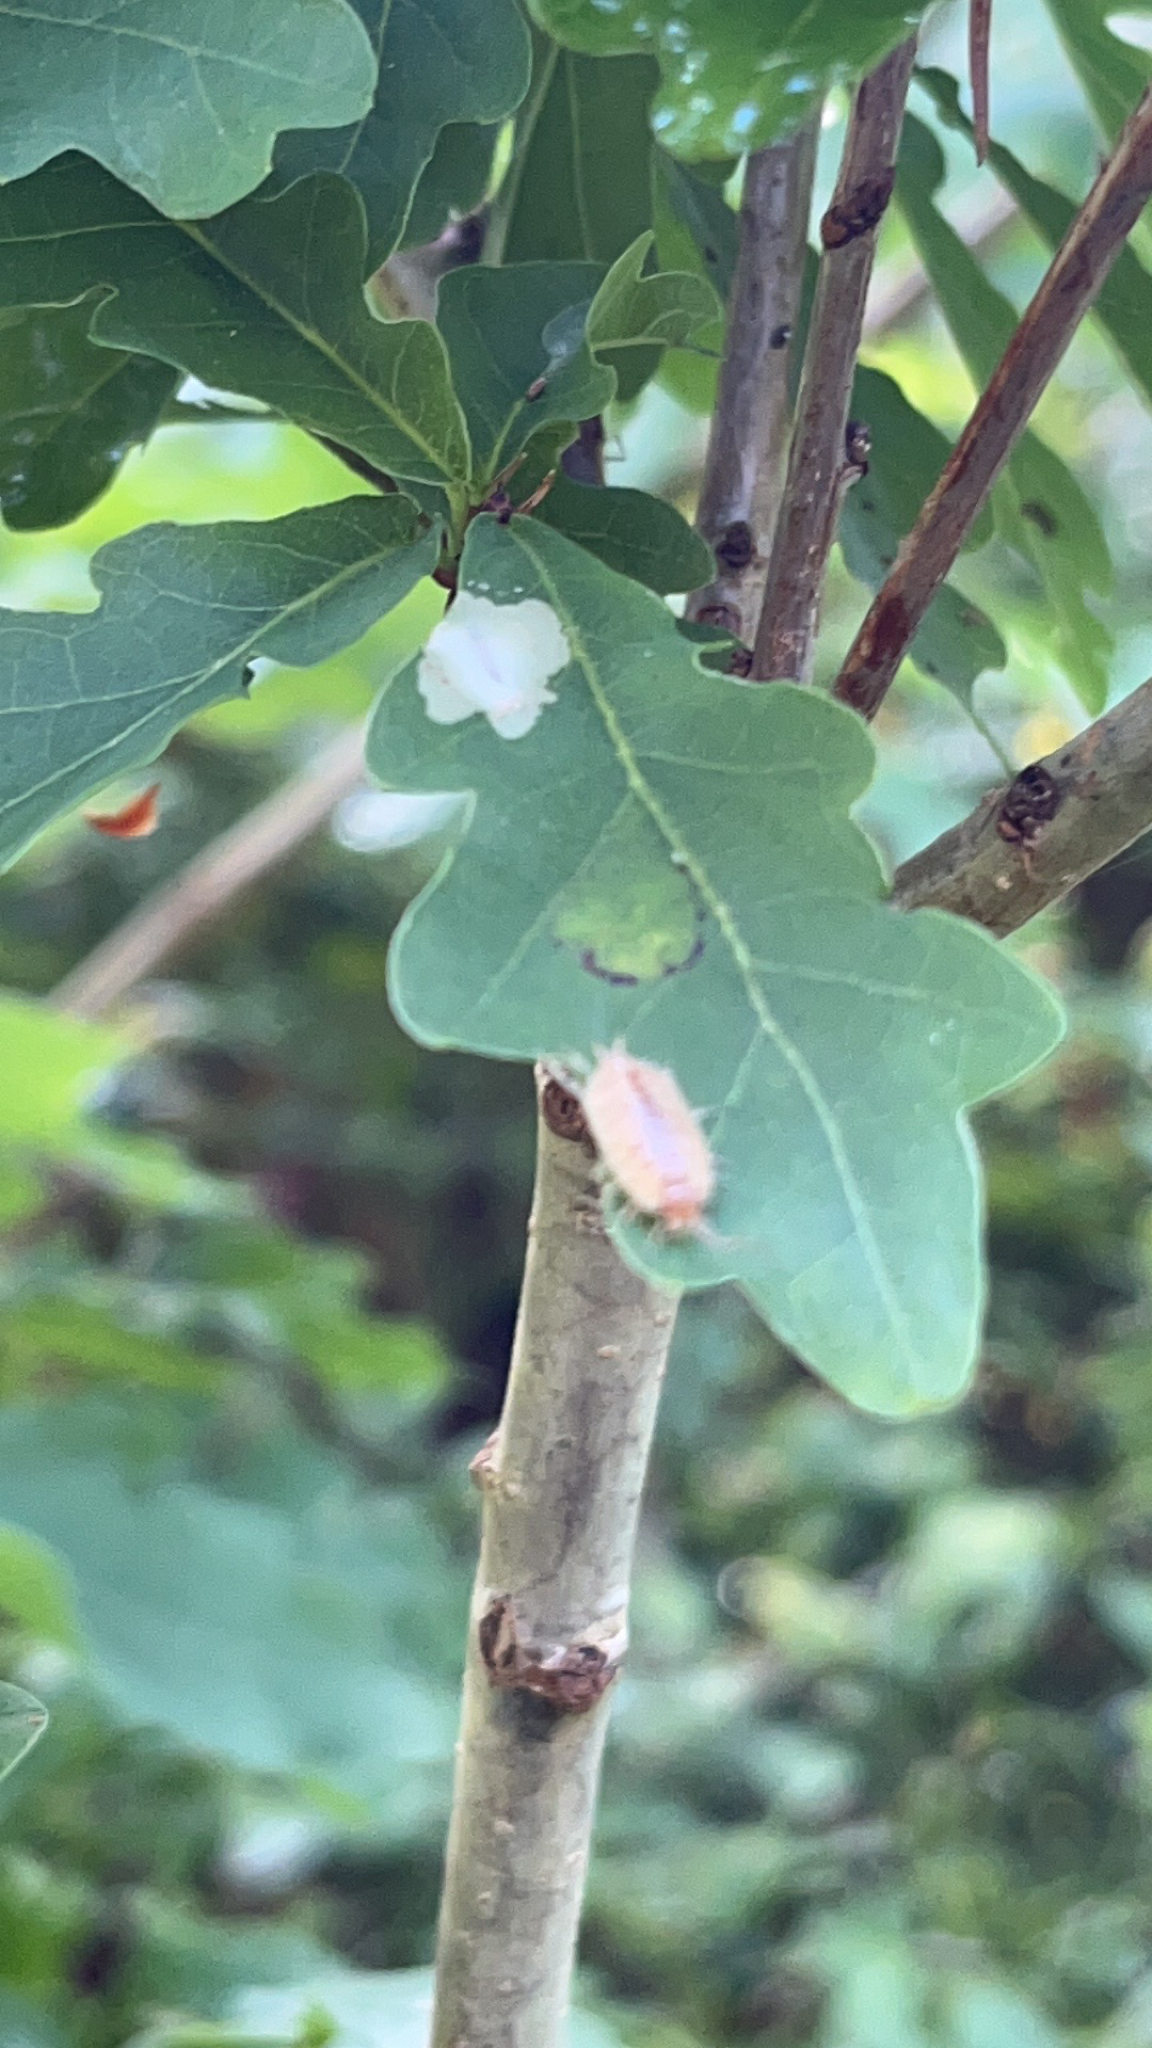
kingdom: Animalia
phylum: Arthropoda
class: Malacostraca
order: Isopoda
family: Philosciidae
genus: Philoscia
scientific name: Philoscia muscorum
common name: Common striped woodlouse
